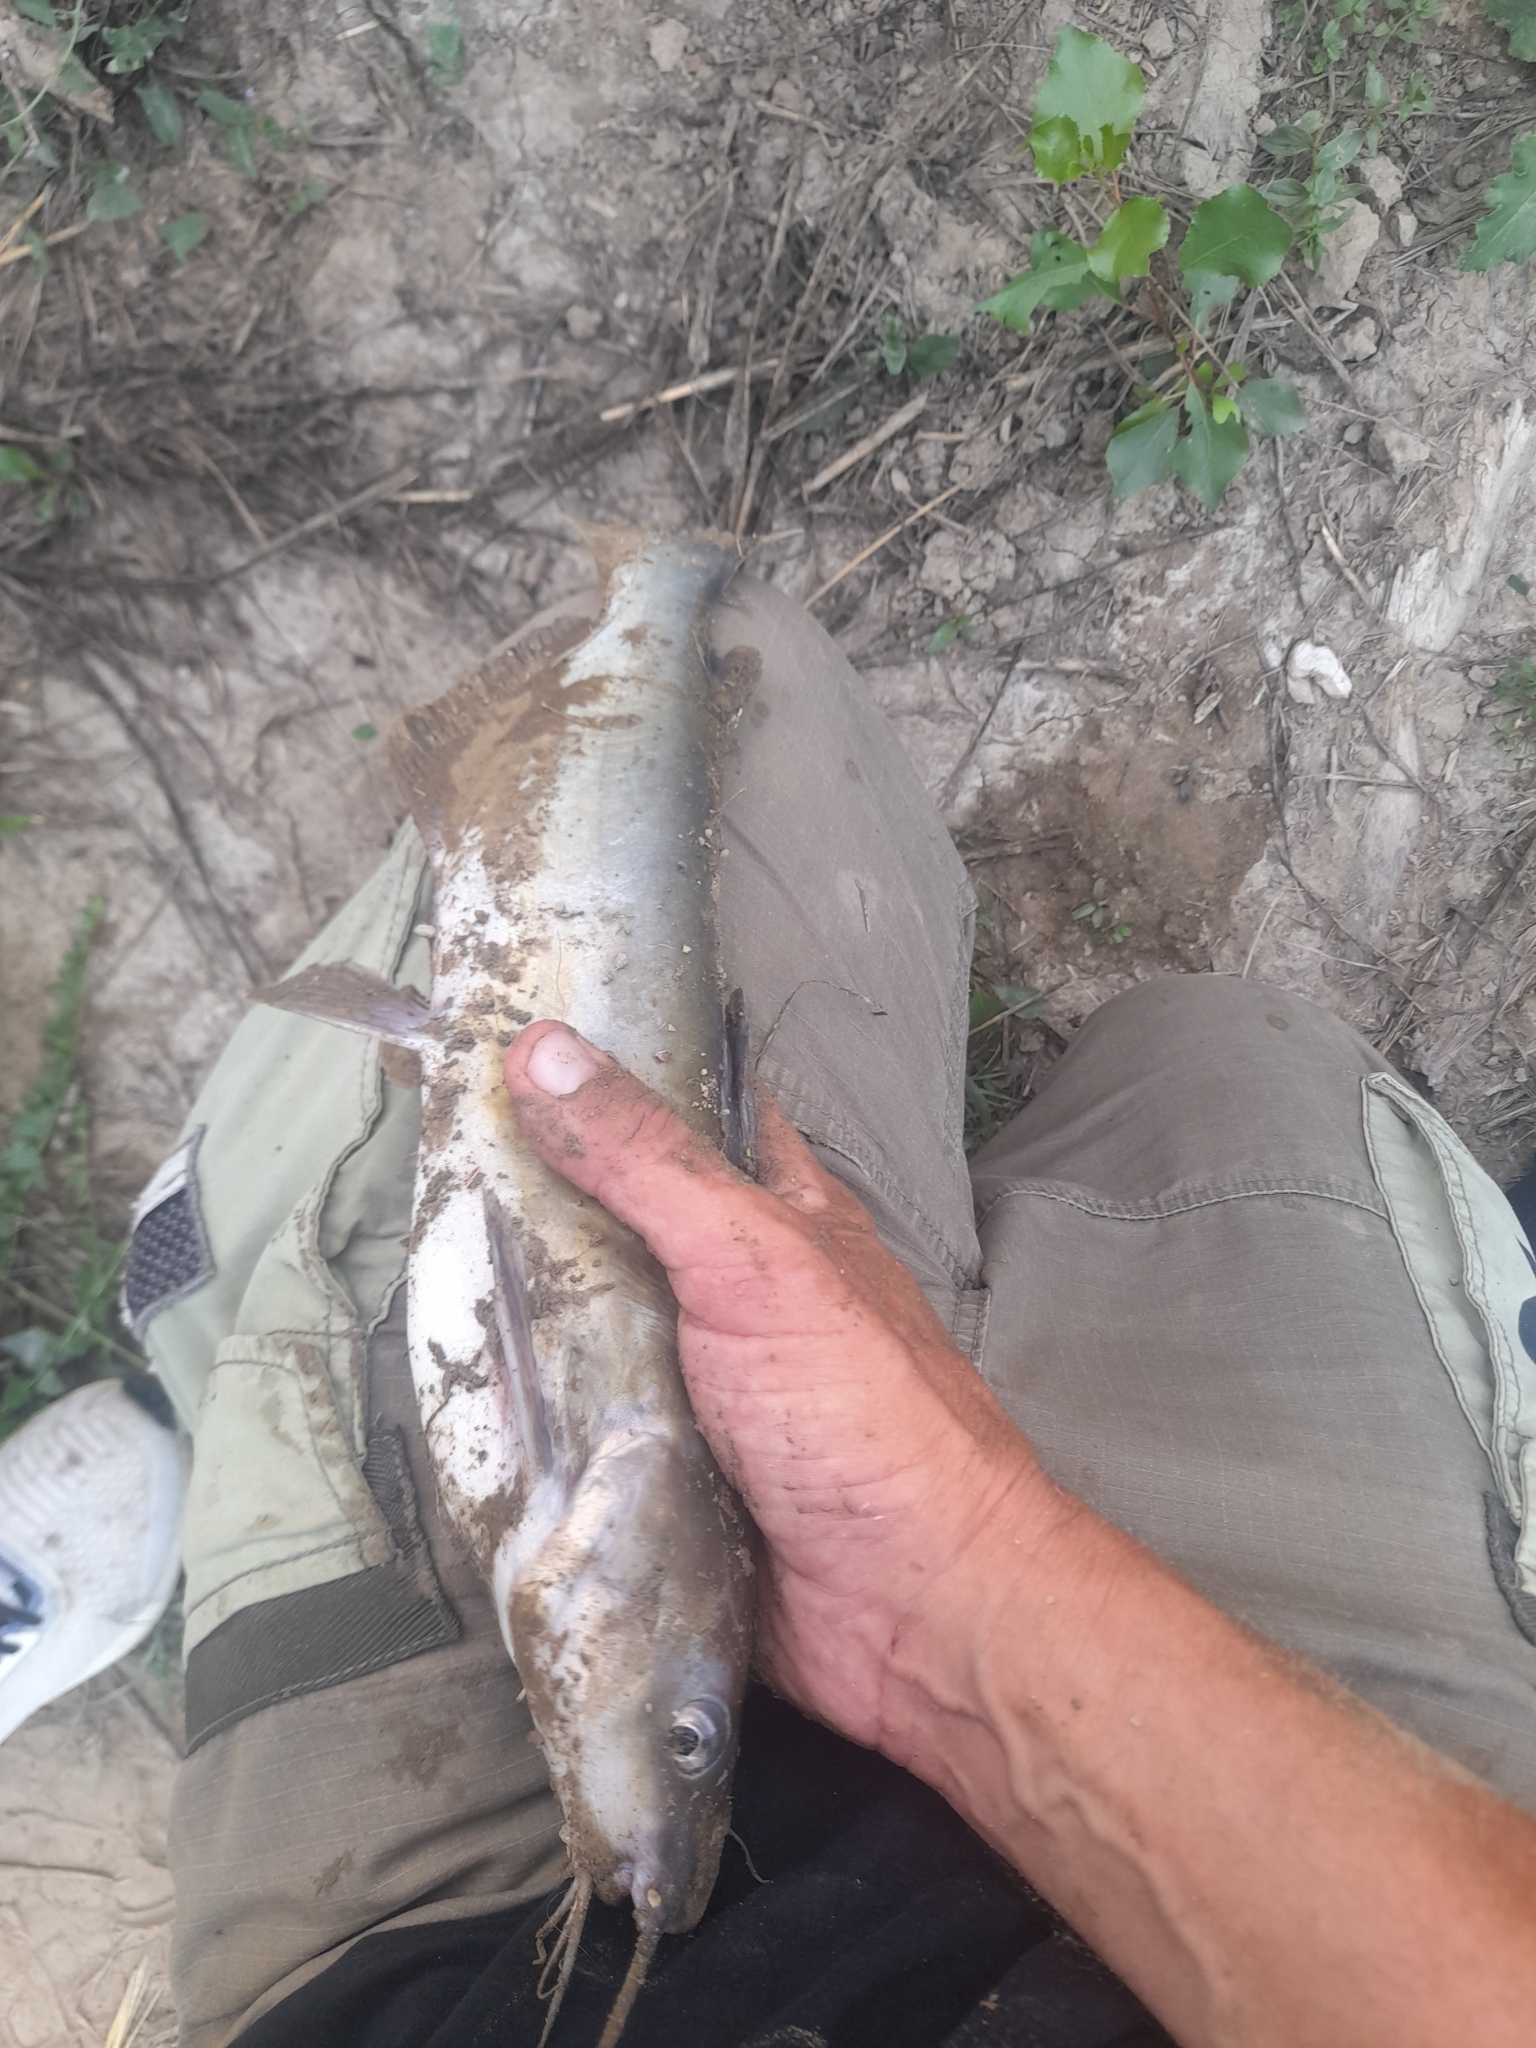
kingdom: Animalia
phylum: Chordata
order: Siluriformes
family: Ictaluridae
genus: Ictalurus
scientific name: Ictalurus punctatus
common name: Channel catfish
